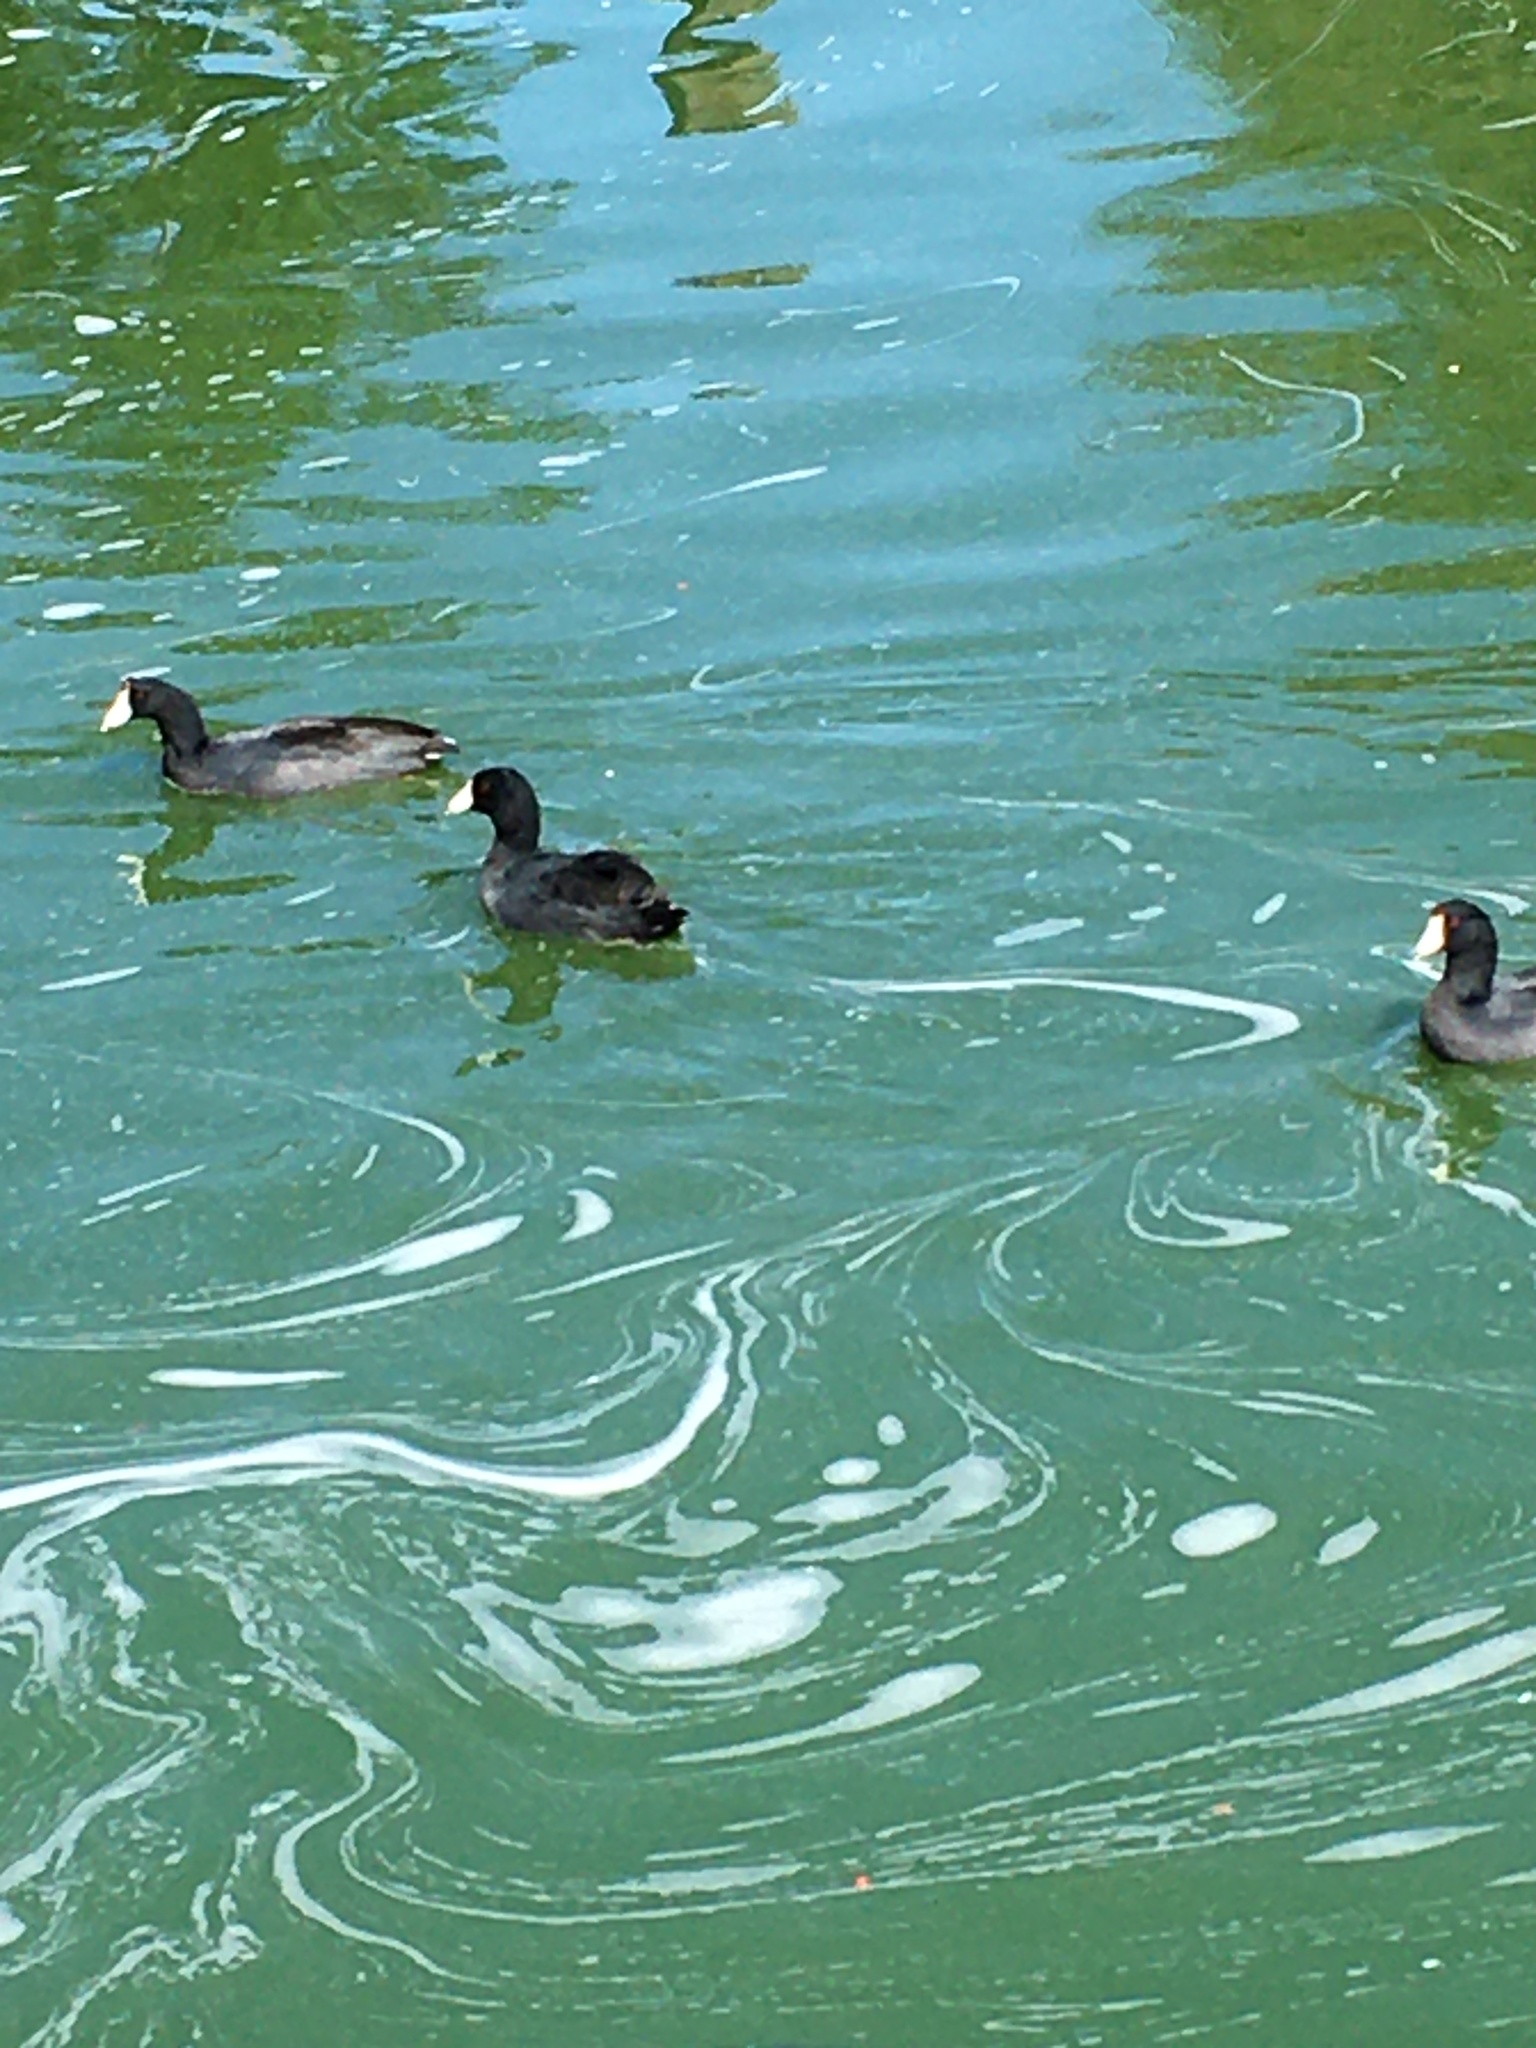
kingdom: Animalia
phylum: Chordata
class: Aves
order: Gruiformes
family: Rallidae
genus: Fulica
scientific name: Fulica americana
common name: American coot
